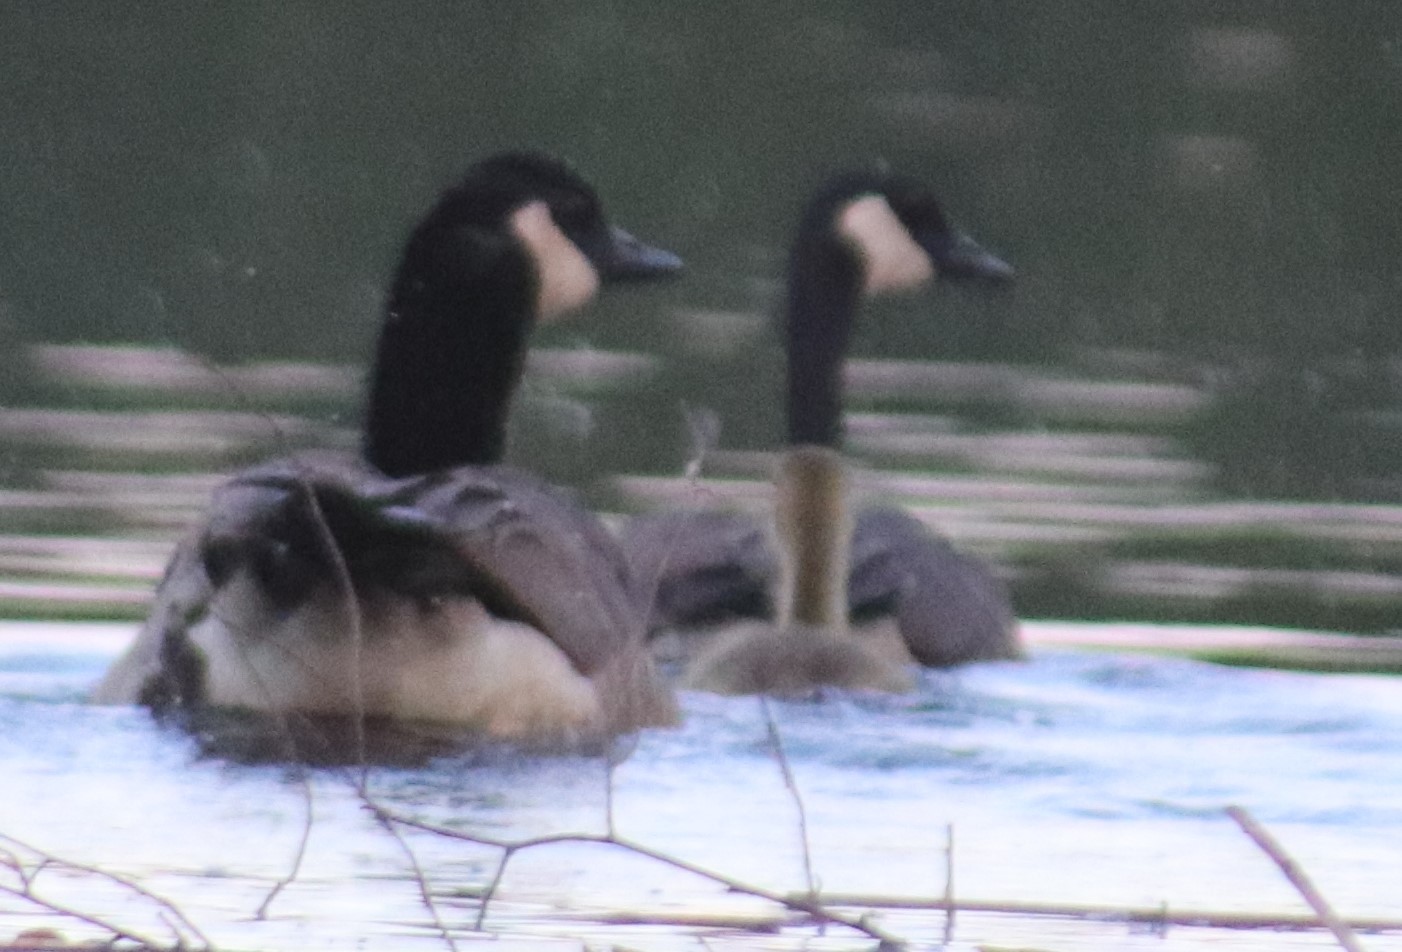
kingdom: Animalia
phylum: Chordata
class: Aves
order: Anseriformes
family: Anatidae
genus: Branta
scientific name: Branta canadensis
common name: Canada goose
